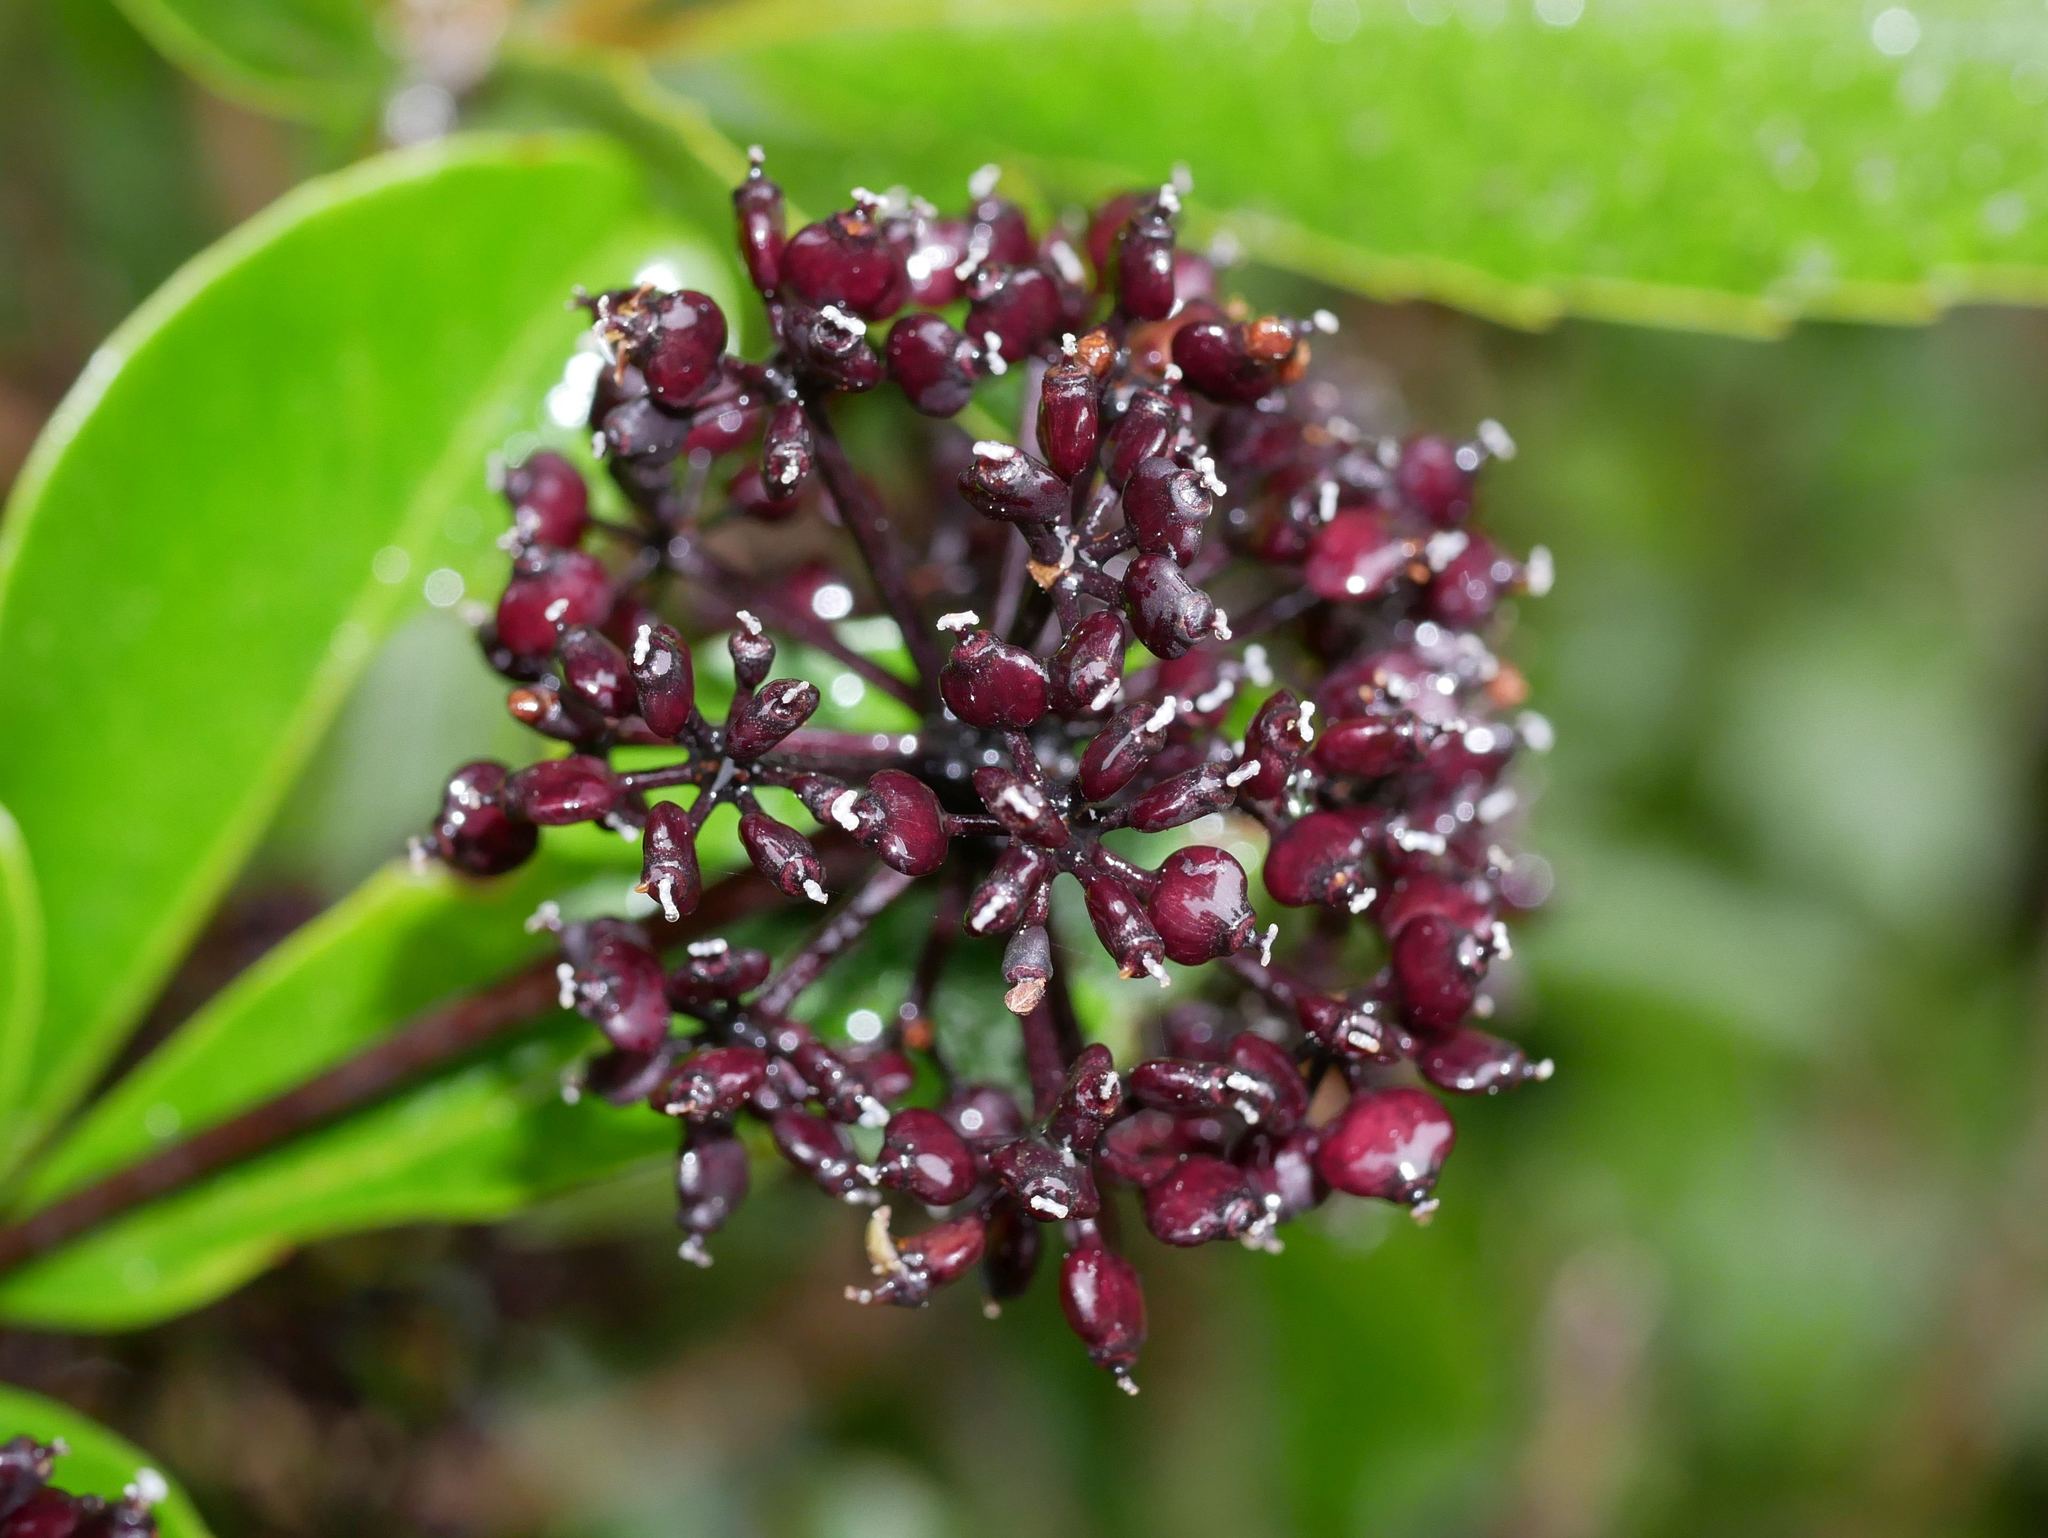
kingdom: Plantae
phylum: Tracheophyta
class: Magnoliopsida
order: Apiales
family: Araliaceae
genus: Neopanax
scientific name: Neopanax arboreus
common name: Five-fingers
